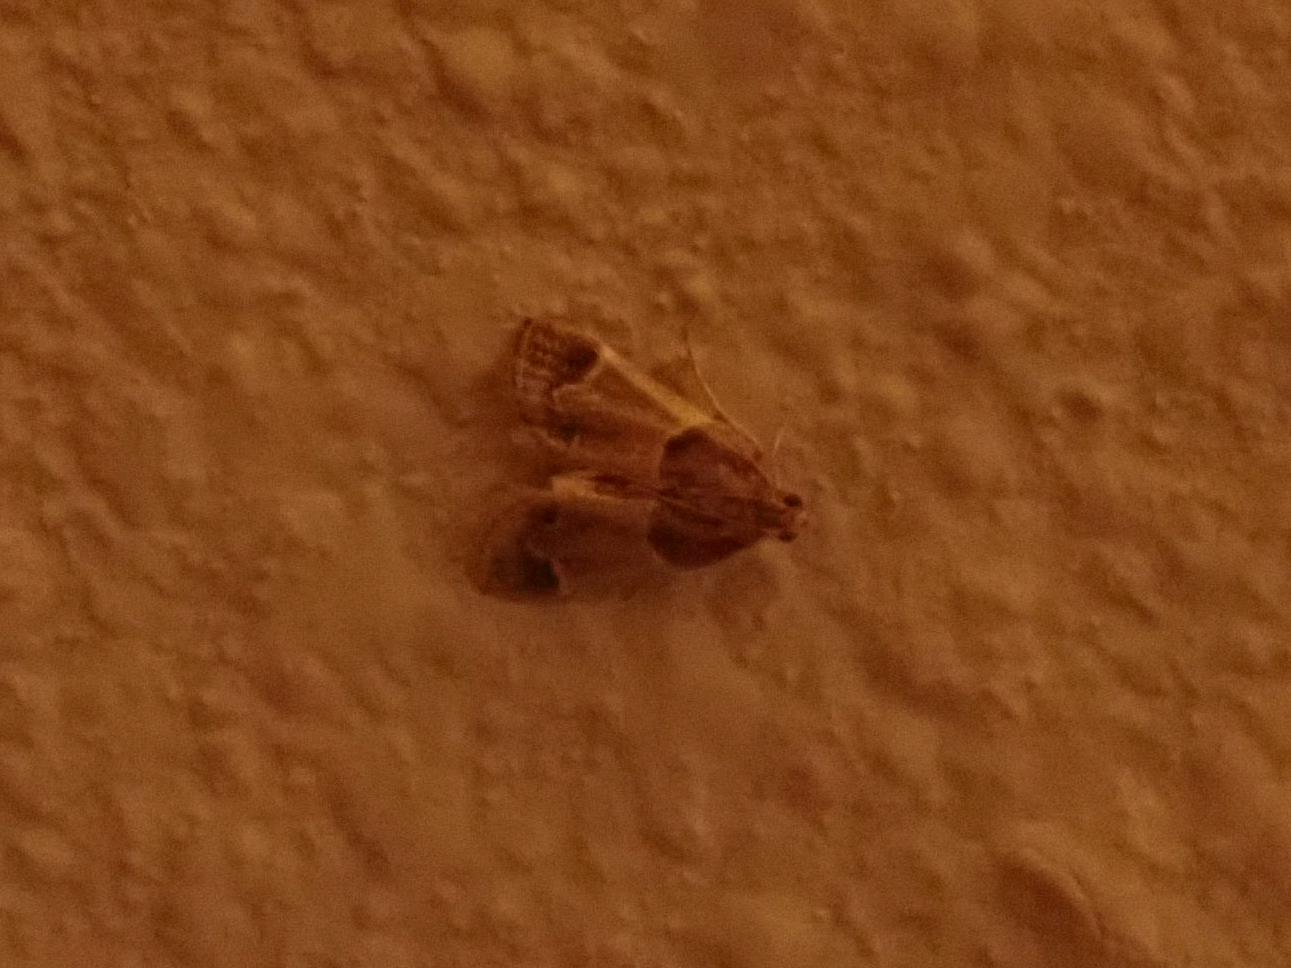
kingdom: Animalia
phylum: Arthropoda
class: Insecta
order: Lepidoptera
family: Pyralidae
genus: Pyralis
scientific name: Pyralis farinalis
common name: Meal moth
